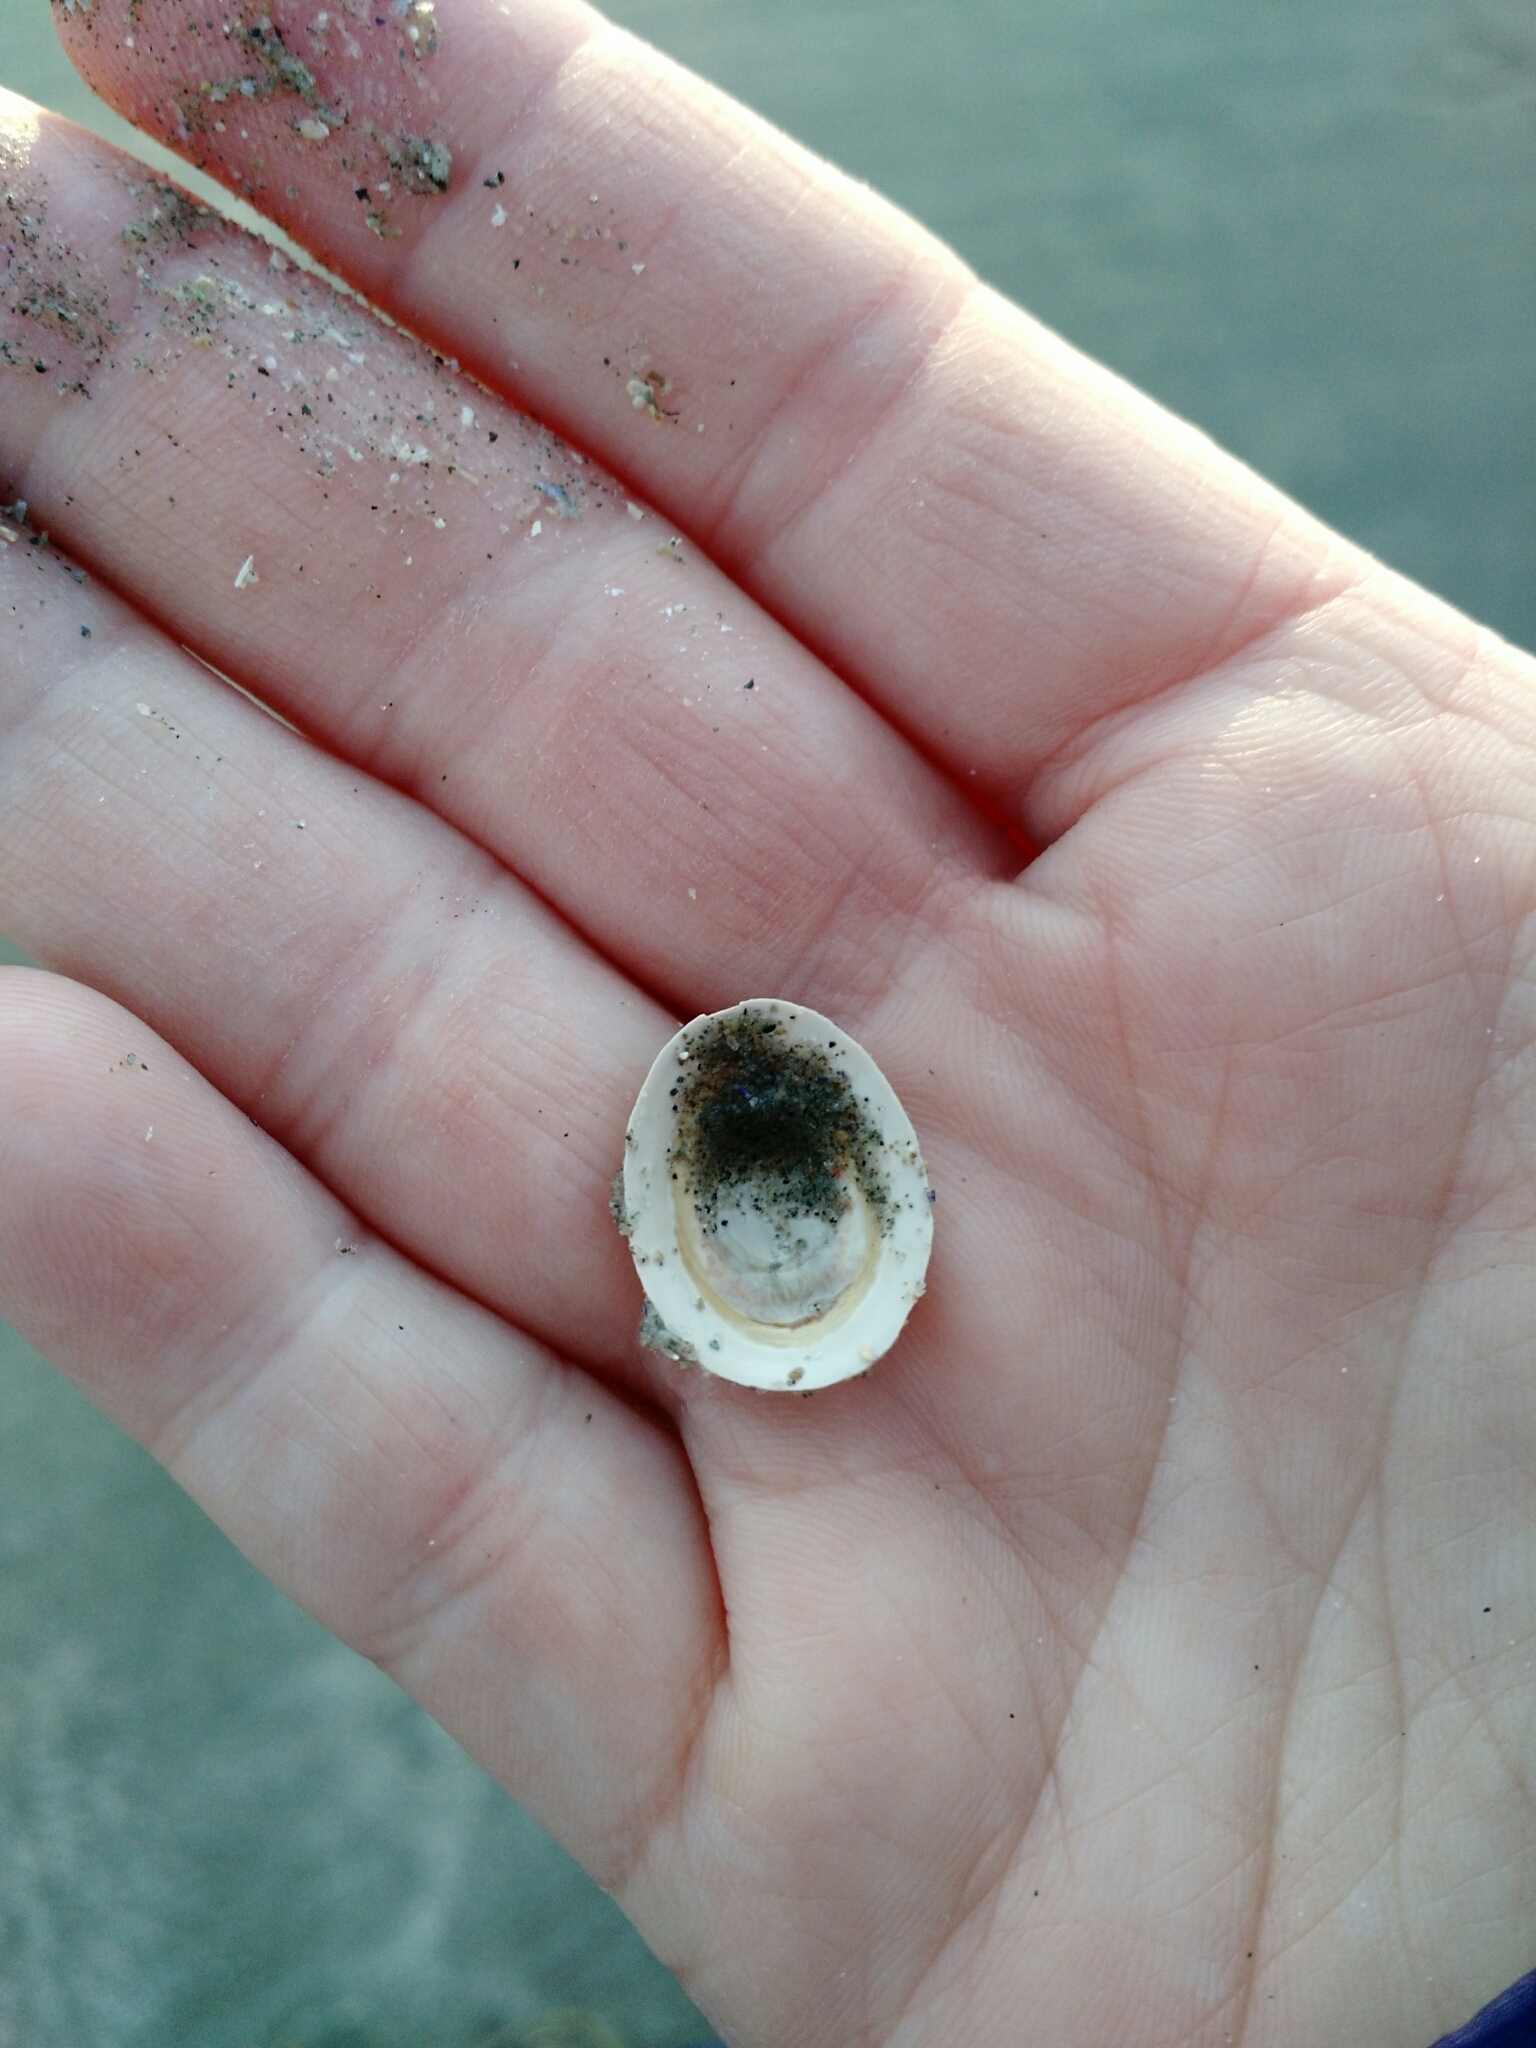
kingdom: Animalia
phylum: Mollusca
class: Gastropoda
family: Lottiidae
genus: Testudinalia
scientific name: Testudinalia testudinalis
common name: Common tortoiseshell limpet
